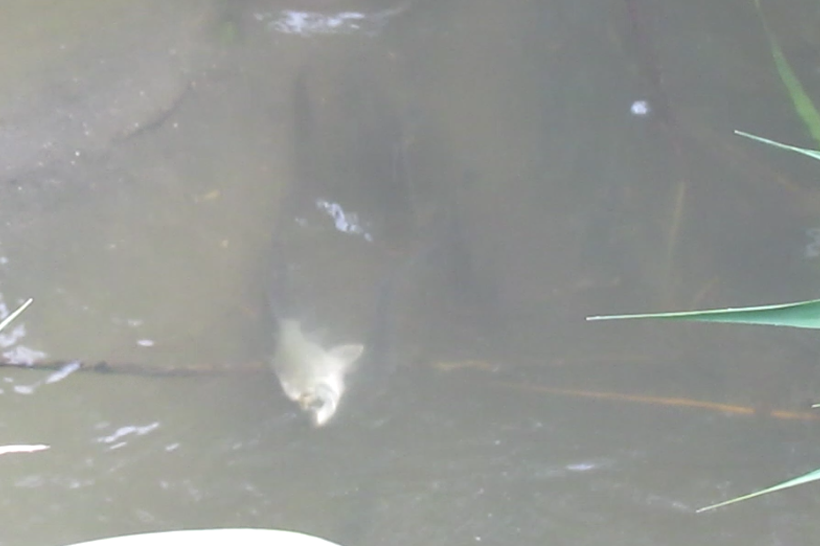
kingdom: Animalia
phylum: Chordata
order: Characiformes
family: Prochilodontidae
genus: Prochilodus
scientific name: Prochilodus lineatus
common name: Curimbata
